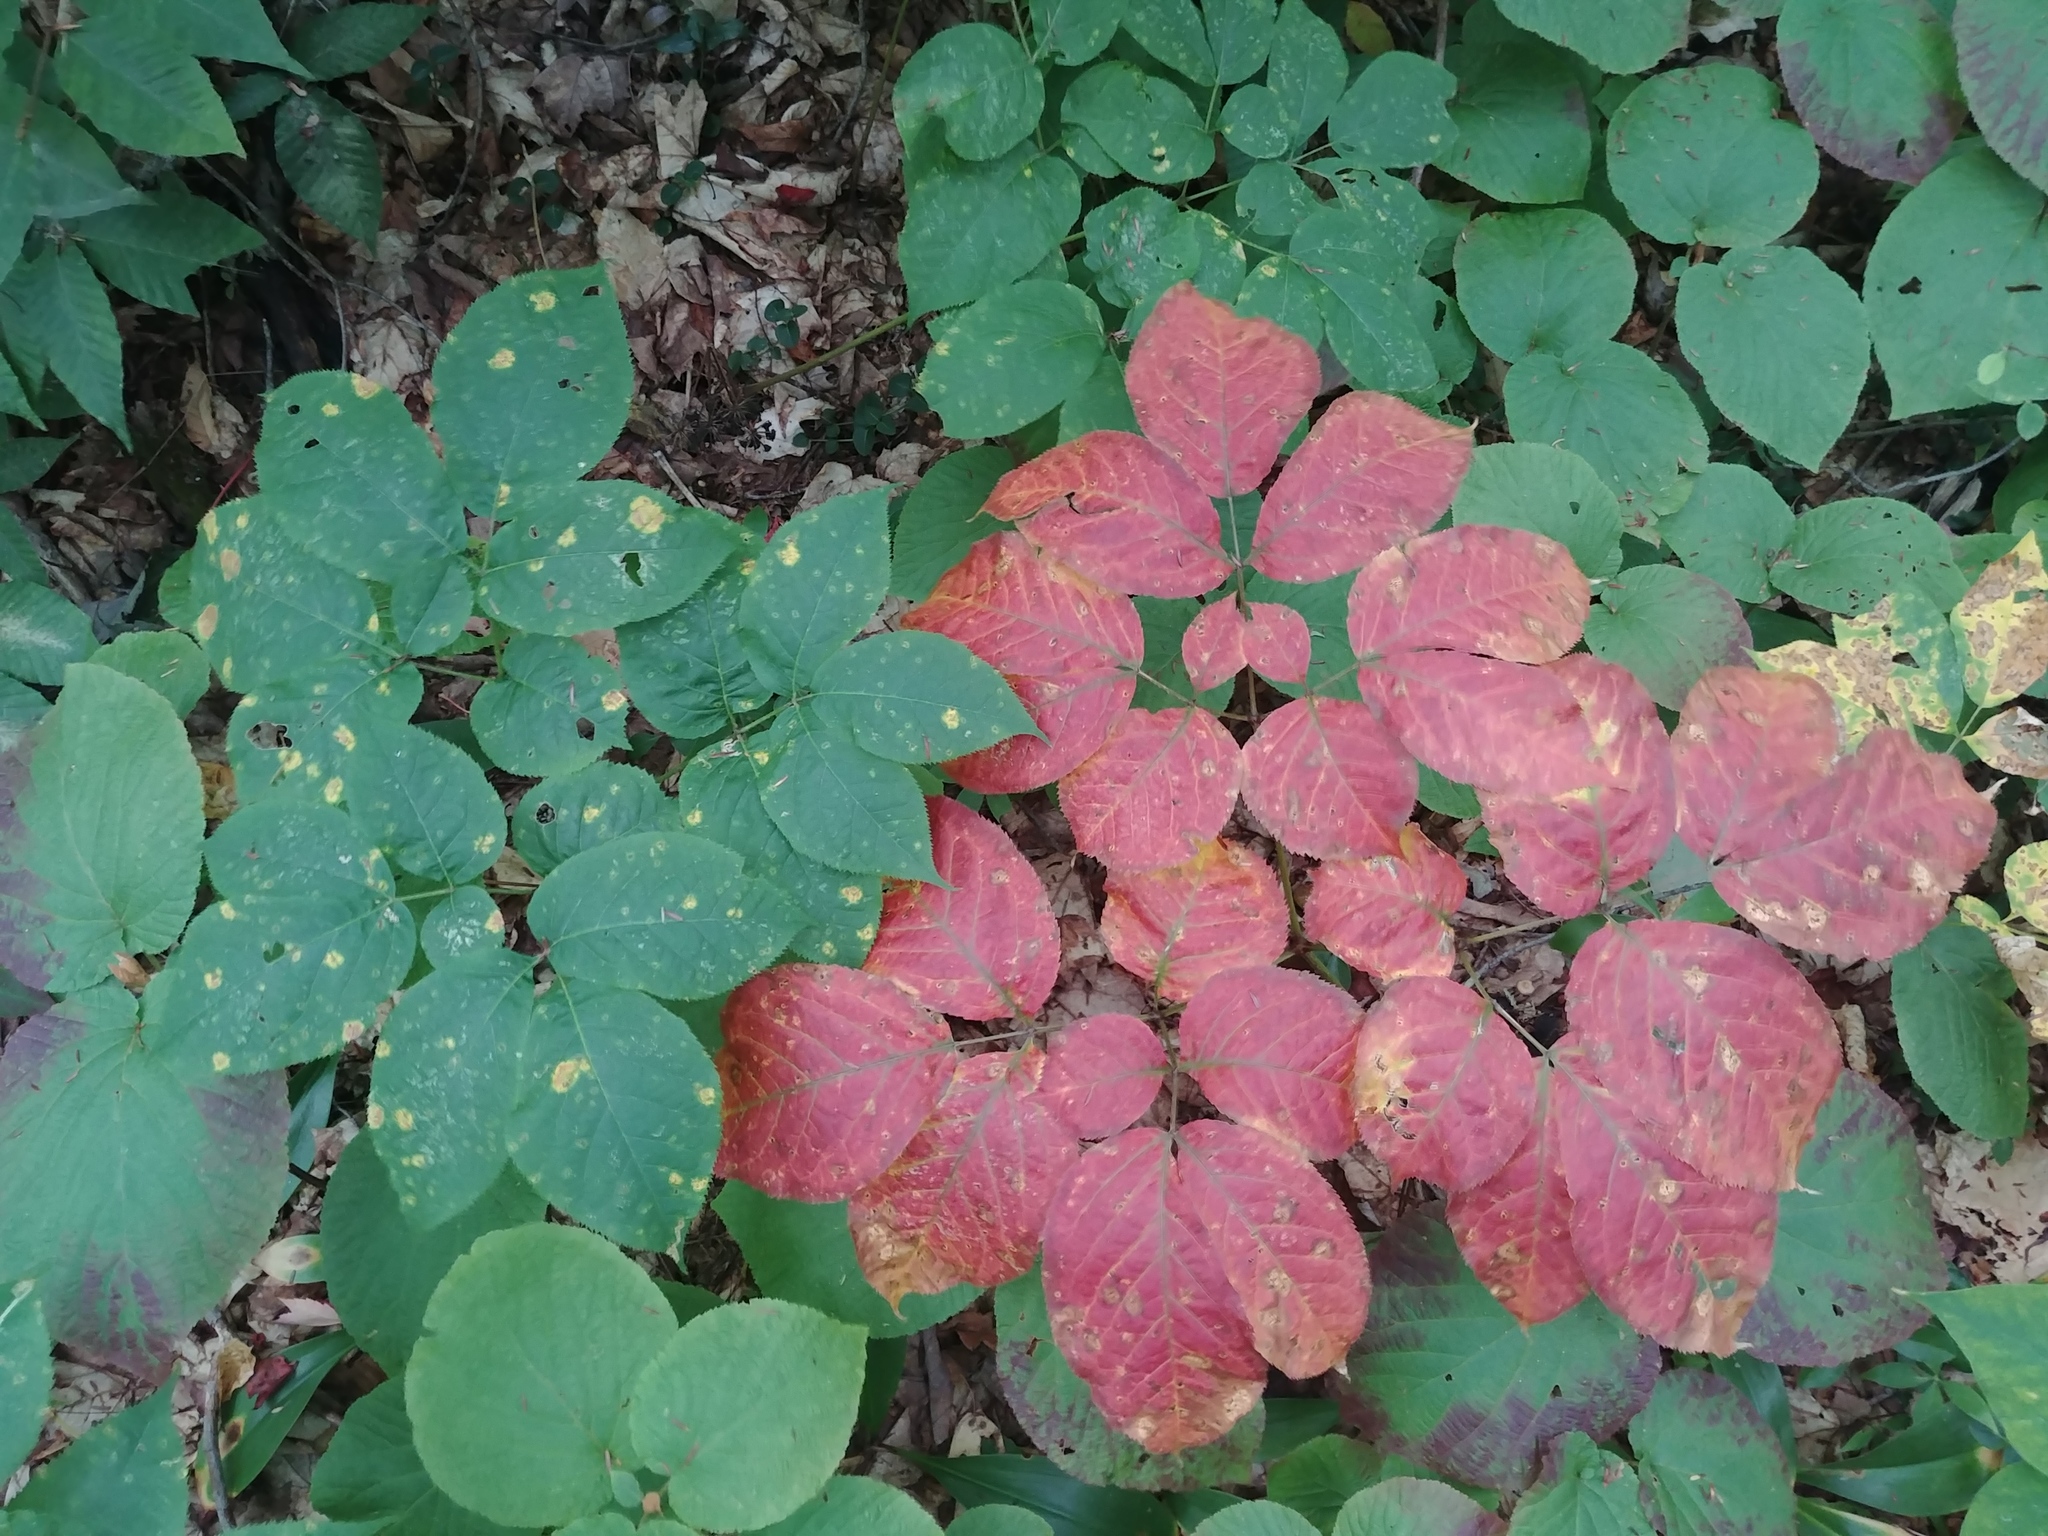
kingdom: Plantae
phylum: Tracheophyta
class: Magnoliopsida
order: Apiales
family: Araliaceae
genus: Aralia
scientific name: Aralia nudicaulis
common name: Wild sarsaparilla
